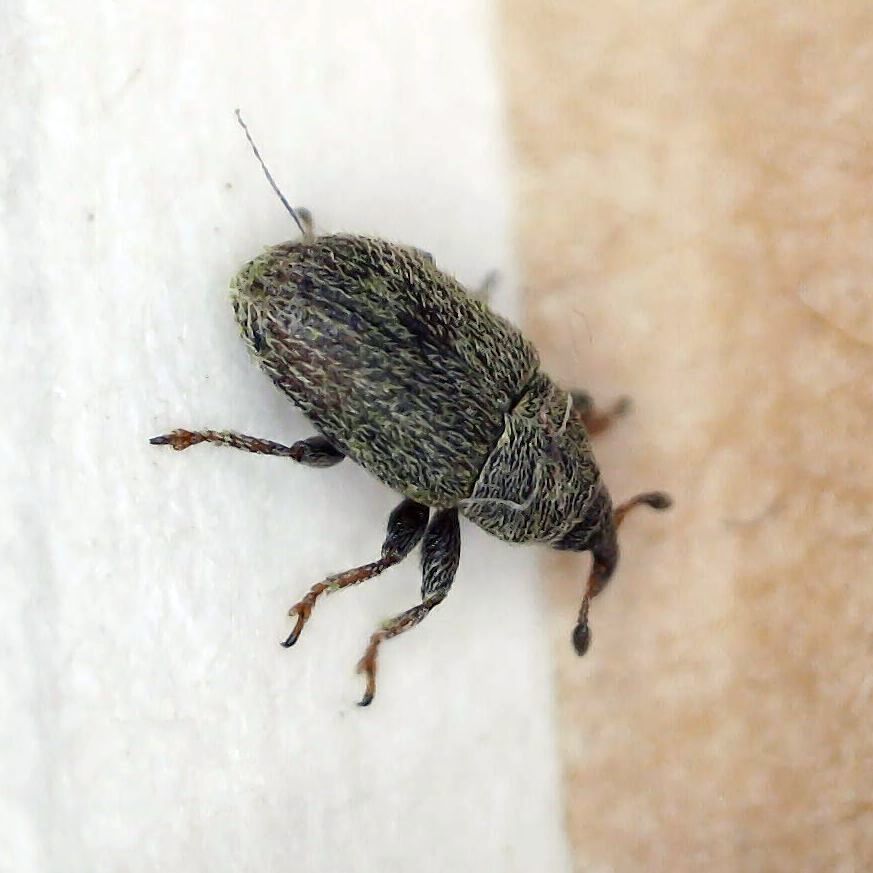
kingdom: Animalia
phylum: Arthropoda
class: Insecta
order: Coleoptera
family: Curculionidae
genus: Mecinus
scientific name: Mecinus pascuorum
